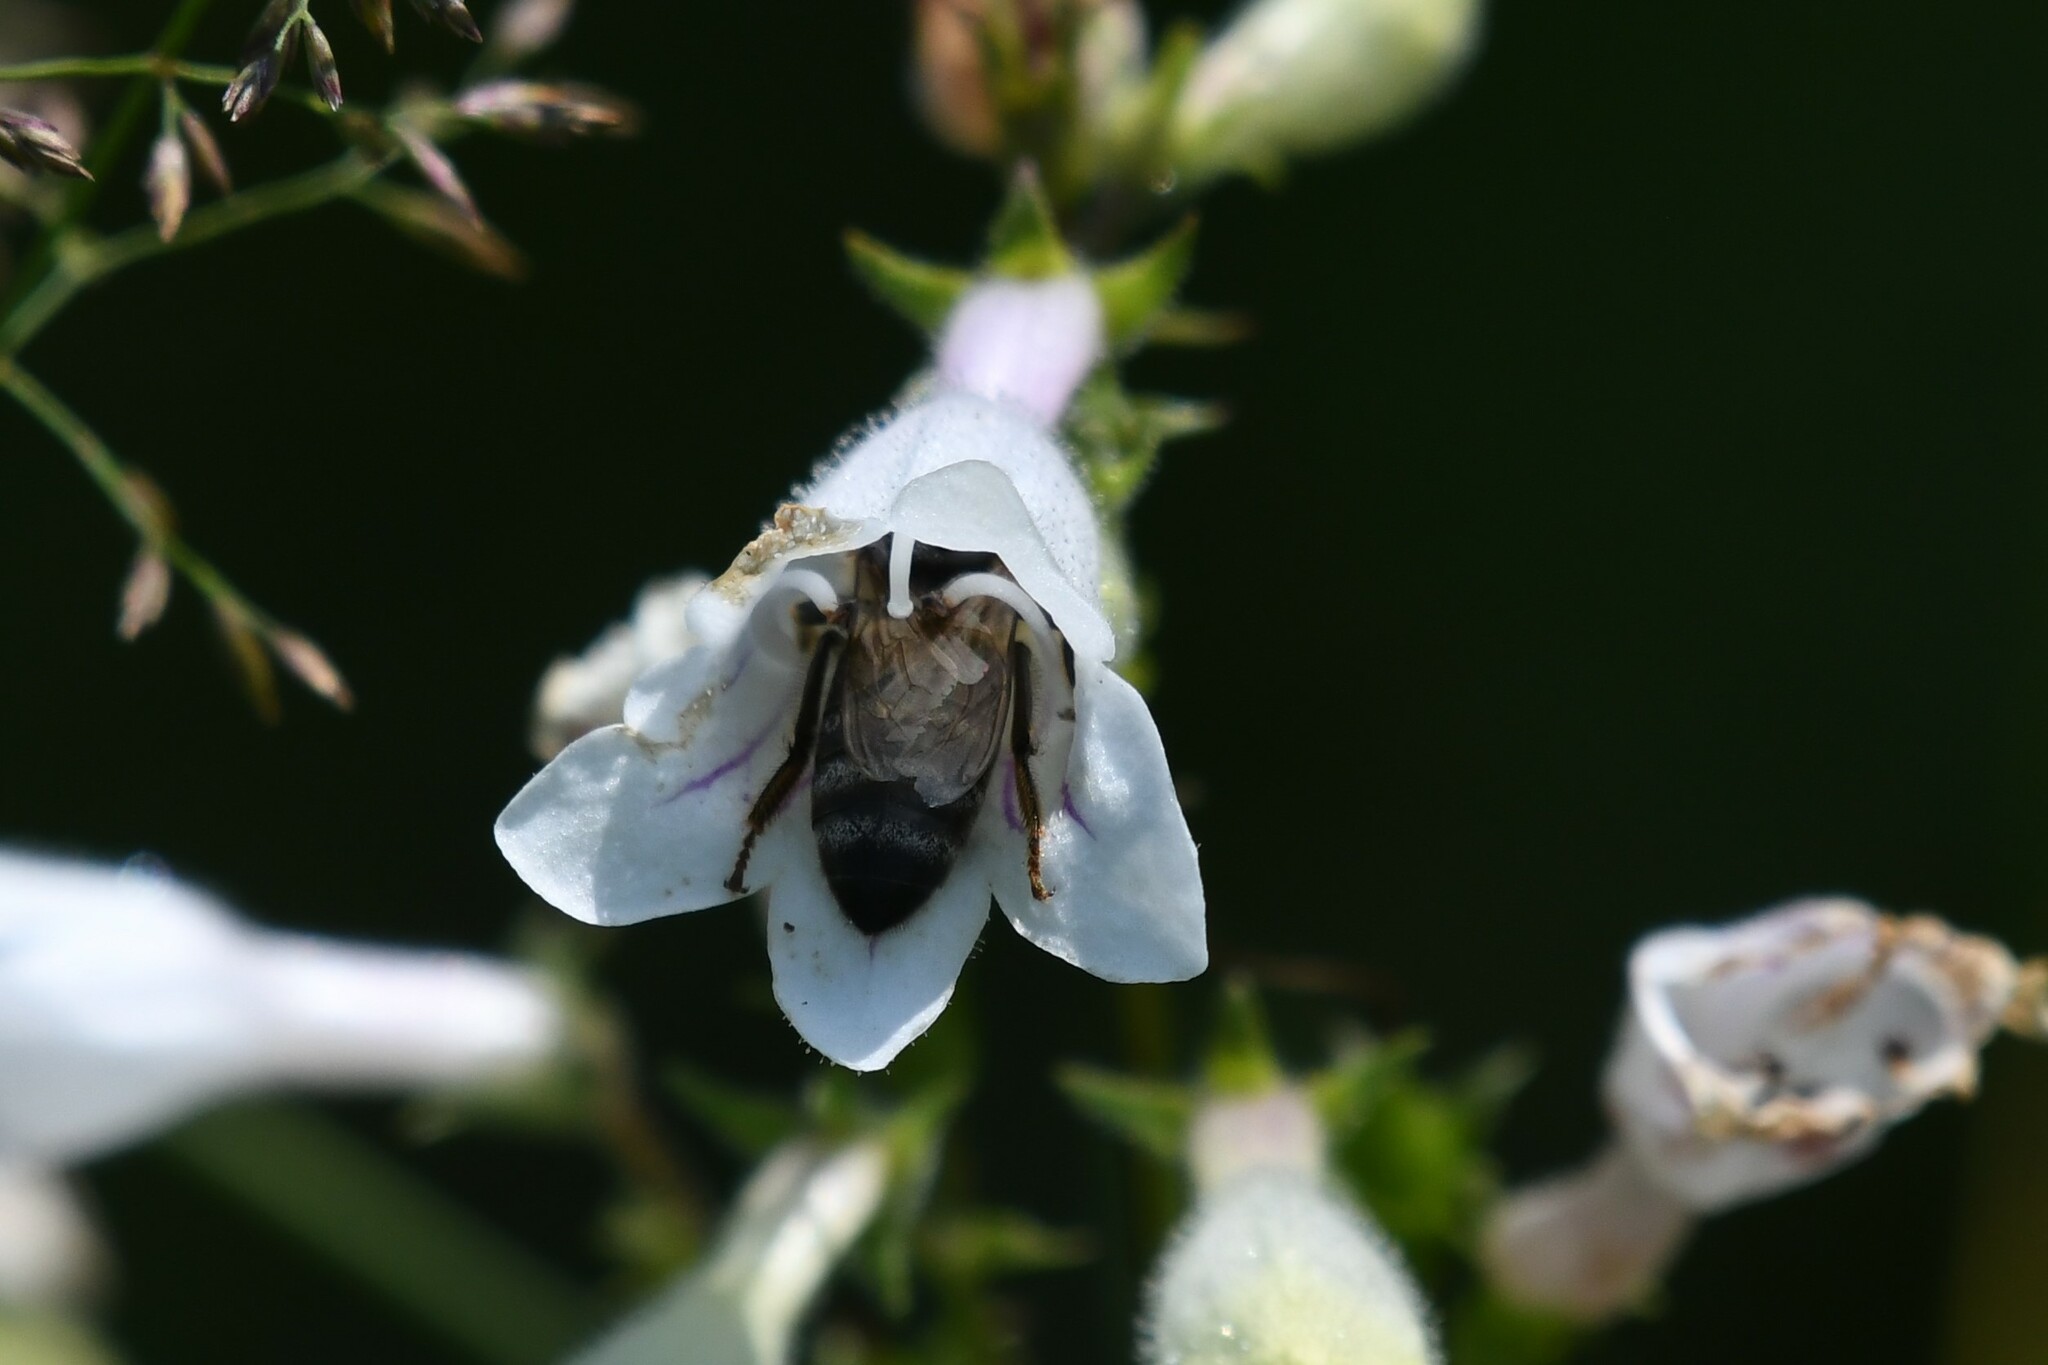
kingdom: Animalia
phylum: Arthropoda
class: Insecta
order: Hymenoptera
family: Apidae
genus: Apis
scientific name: Apis mellifera
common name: Honey bee
